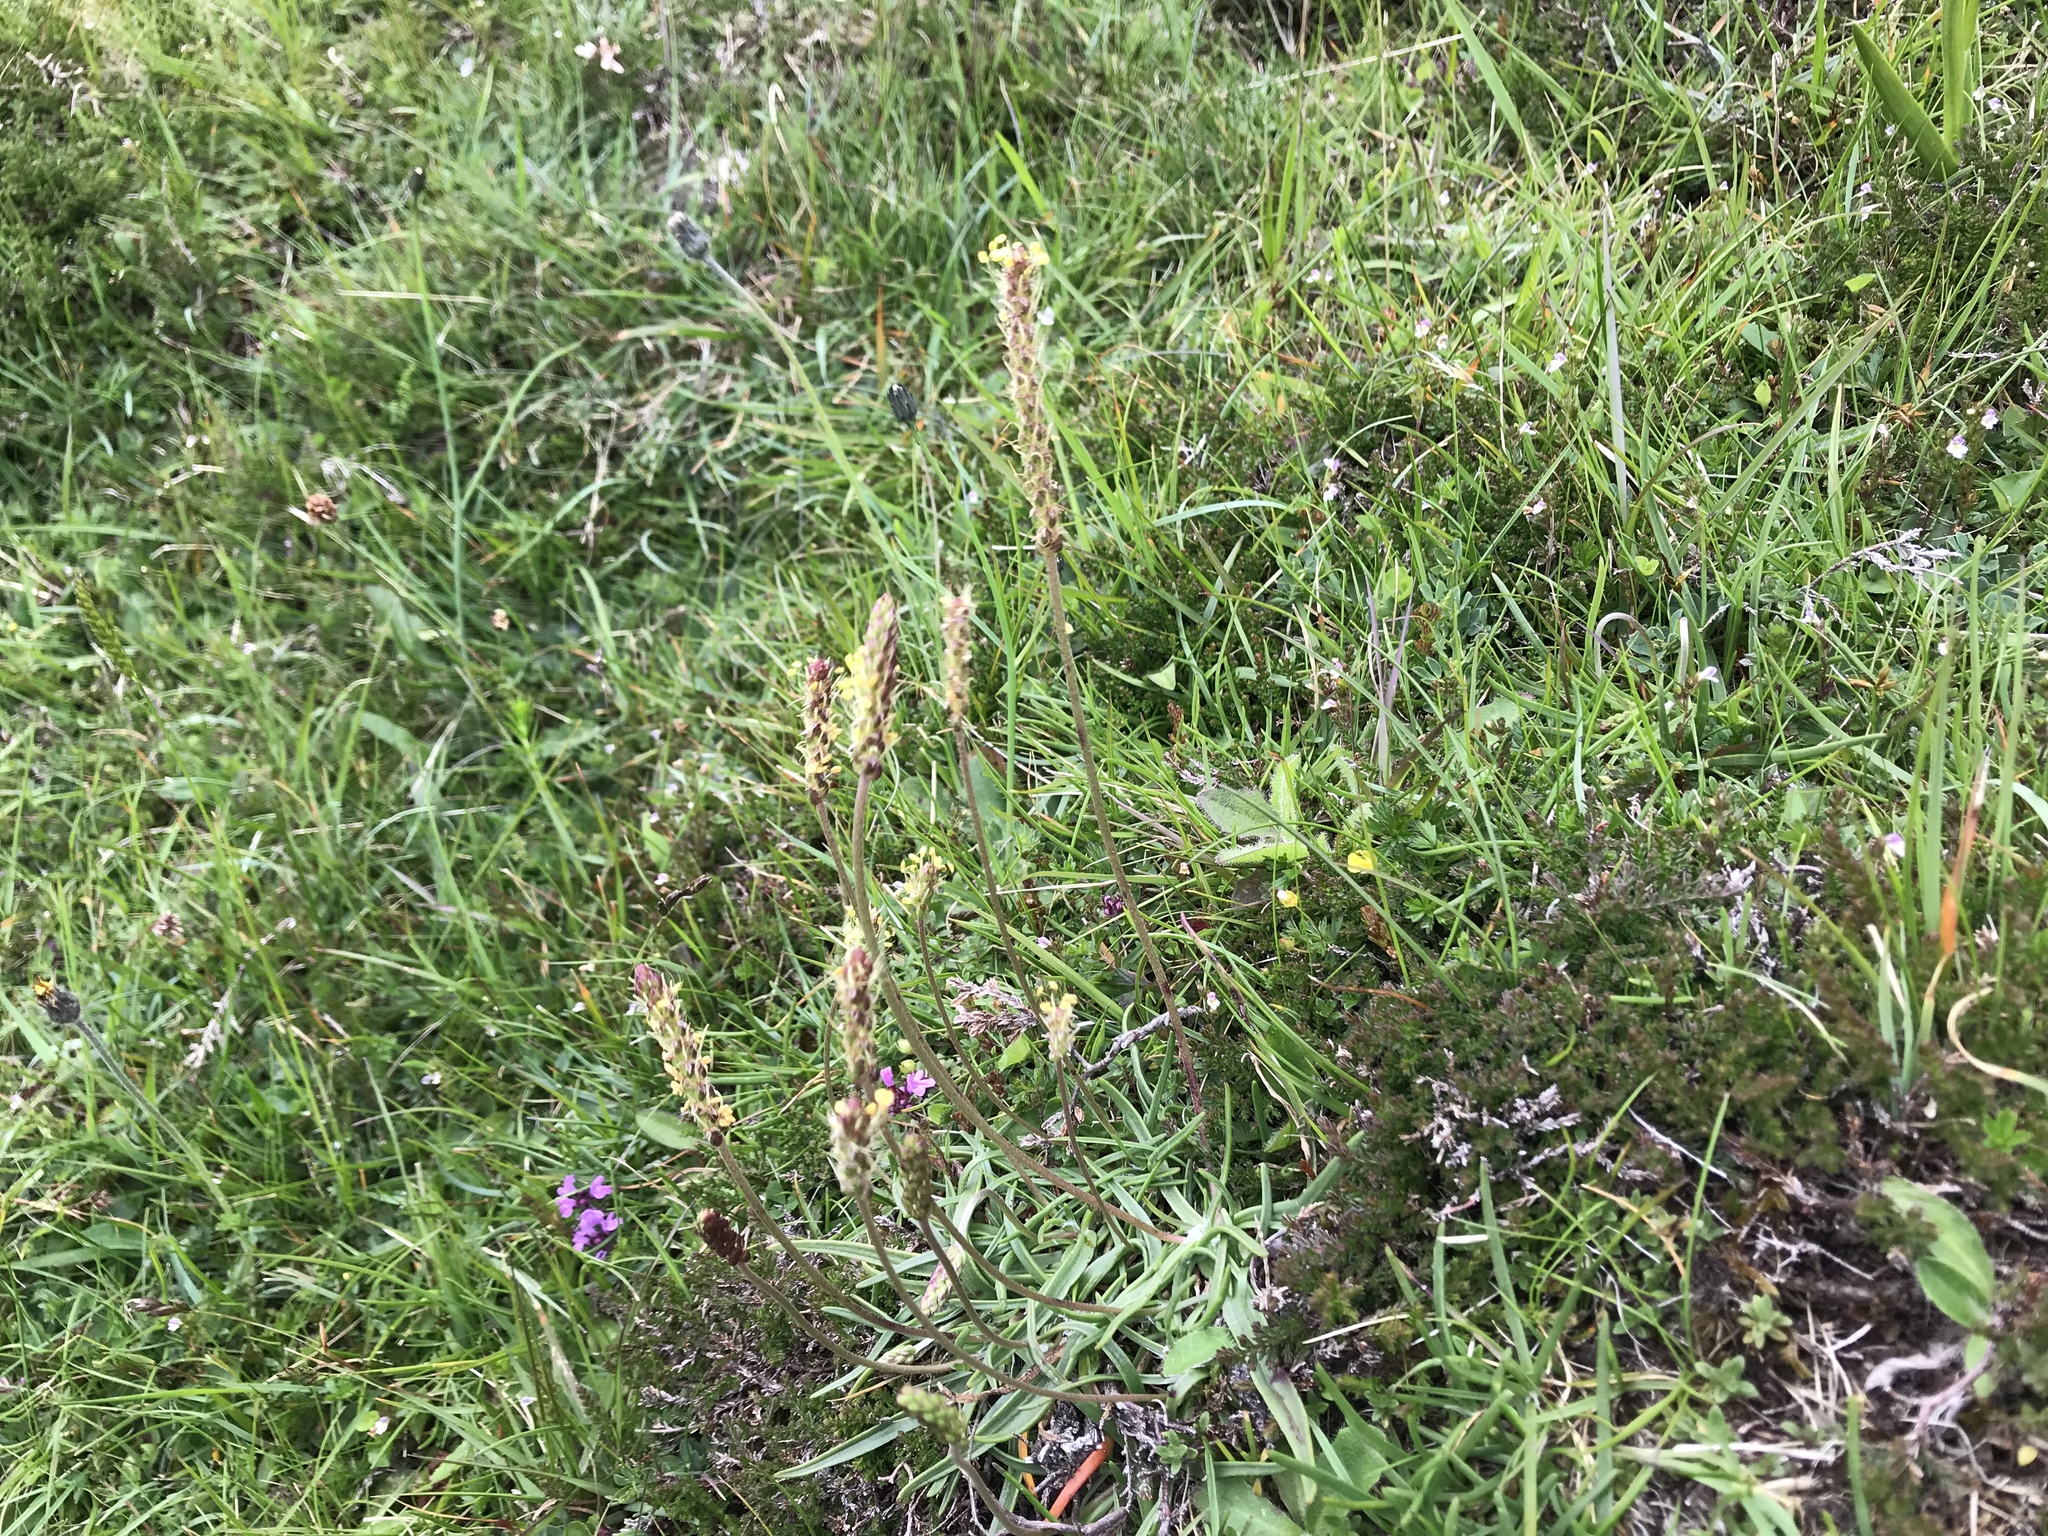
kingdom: Plantae
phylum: Tracheophyta
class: Magnoliopsida
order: Lamiales
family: Plantaginaceae
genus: Plantago
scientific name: Plantago maritima
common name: Sea plantain
